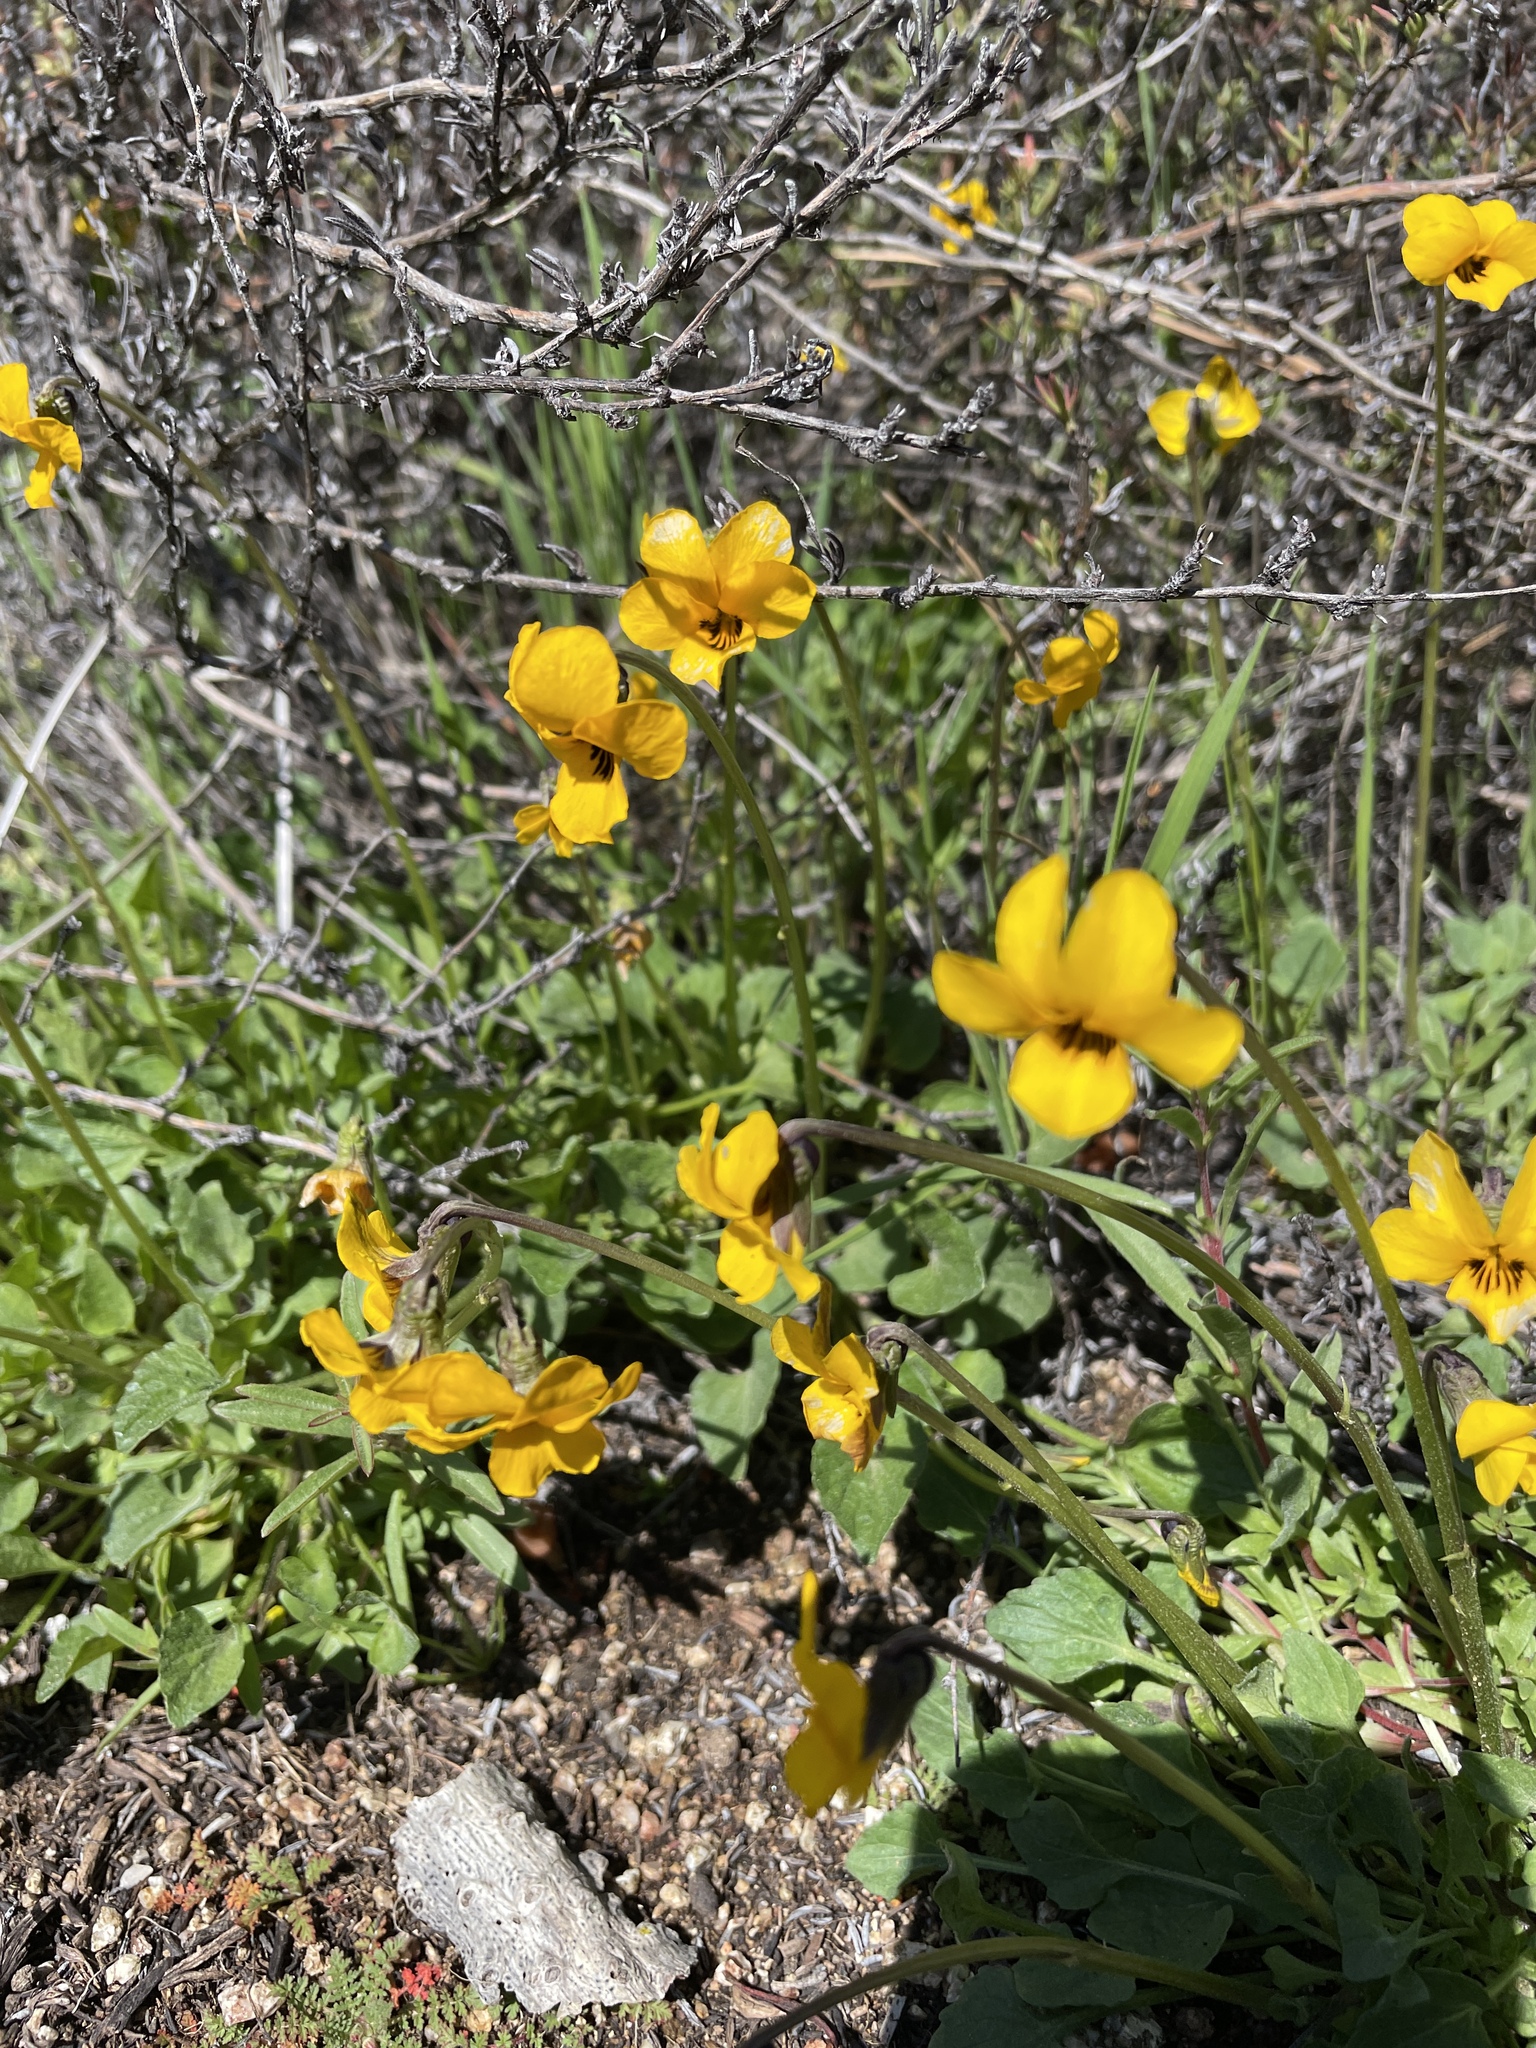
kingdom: Plantae
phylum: Tracheophyta
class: Magnoliopsida
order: Malpighiales
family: Violaceae
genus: Viola
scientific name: Viola pedunculata
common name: California golden violet
